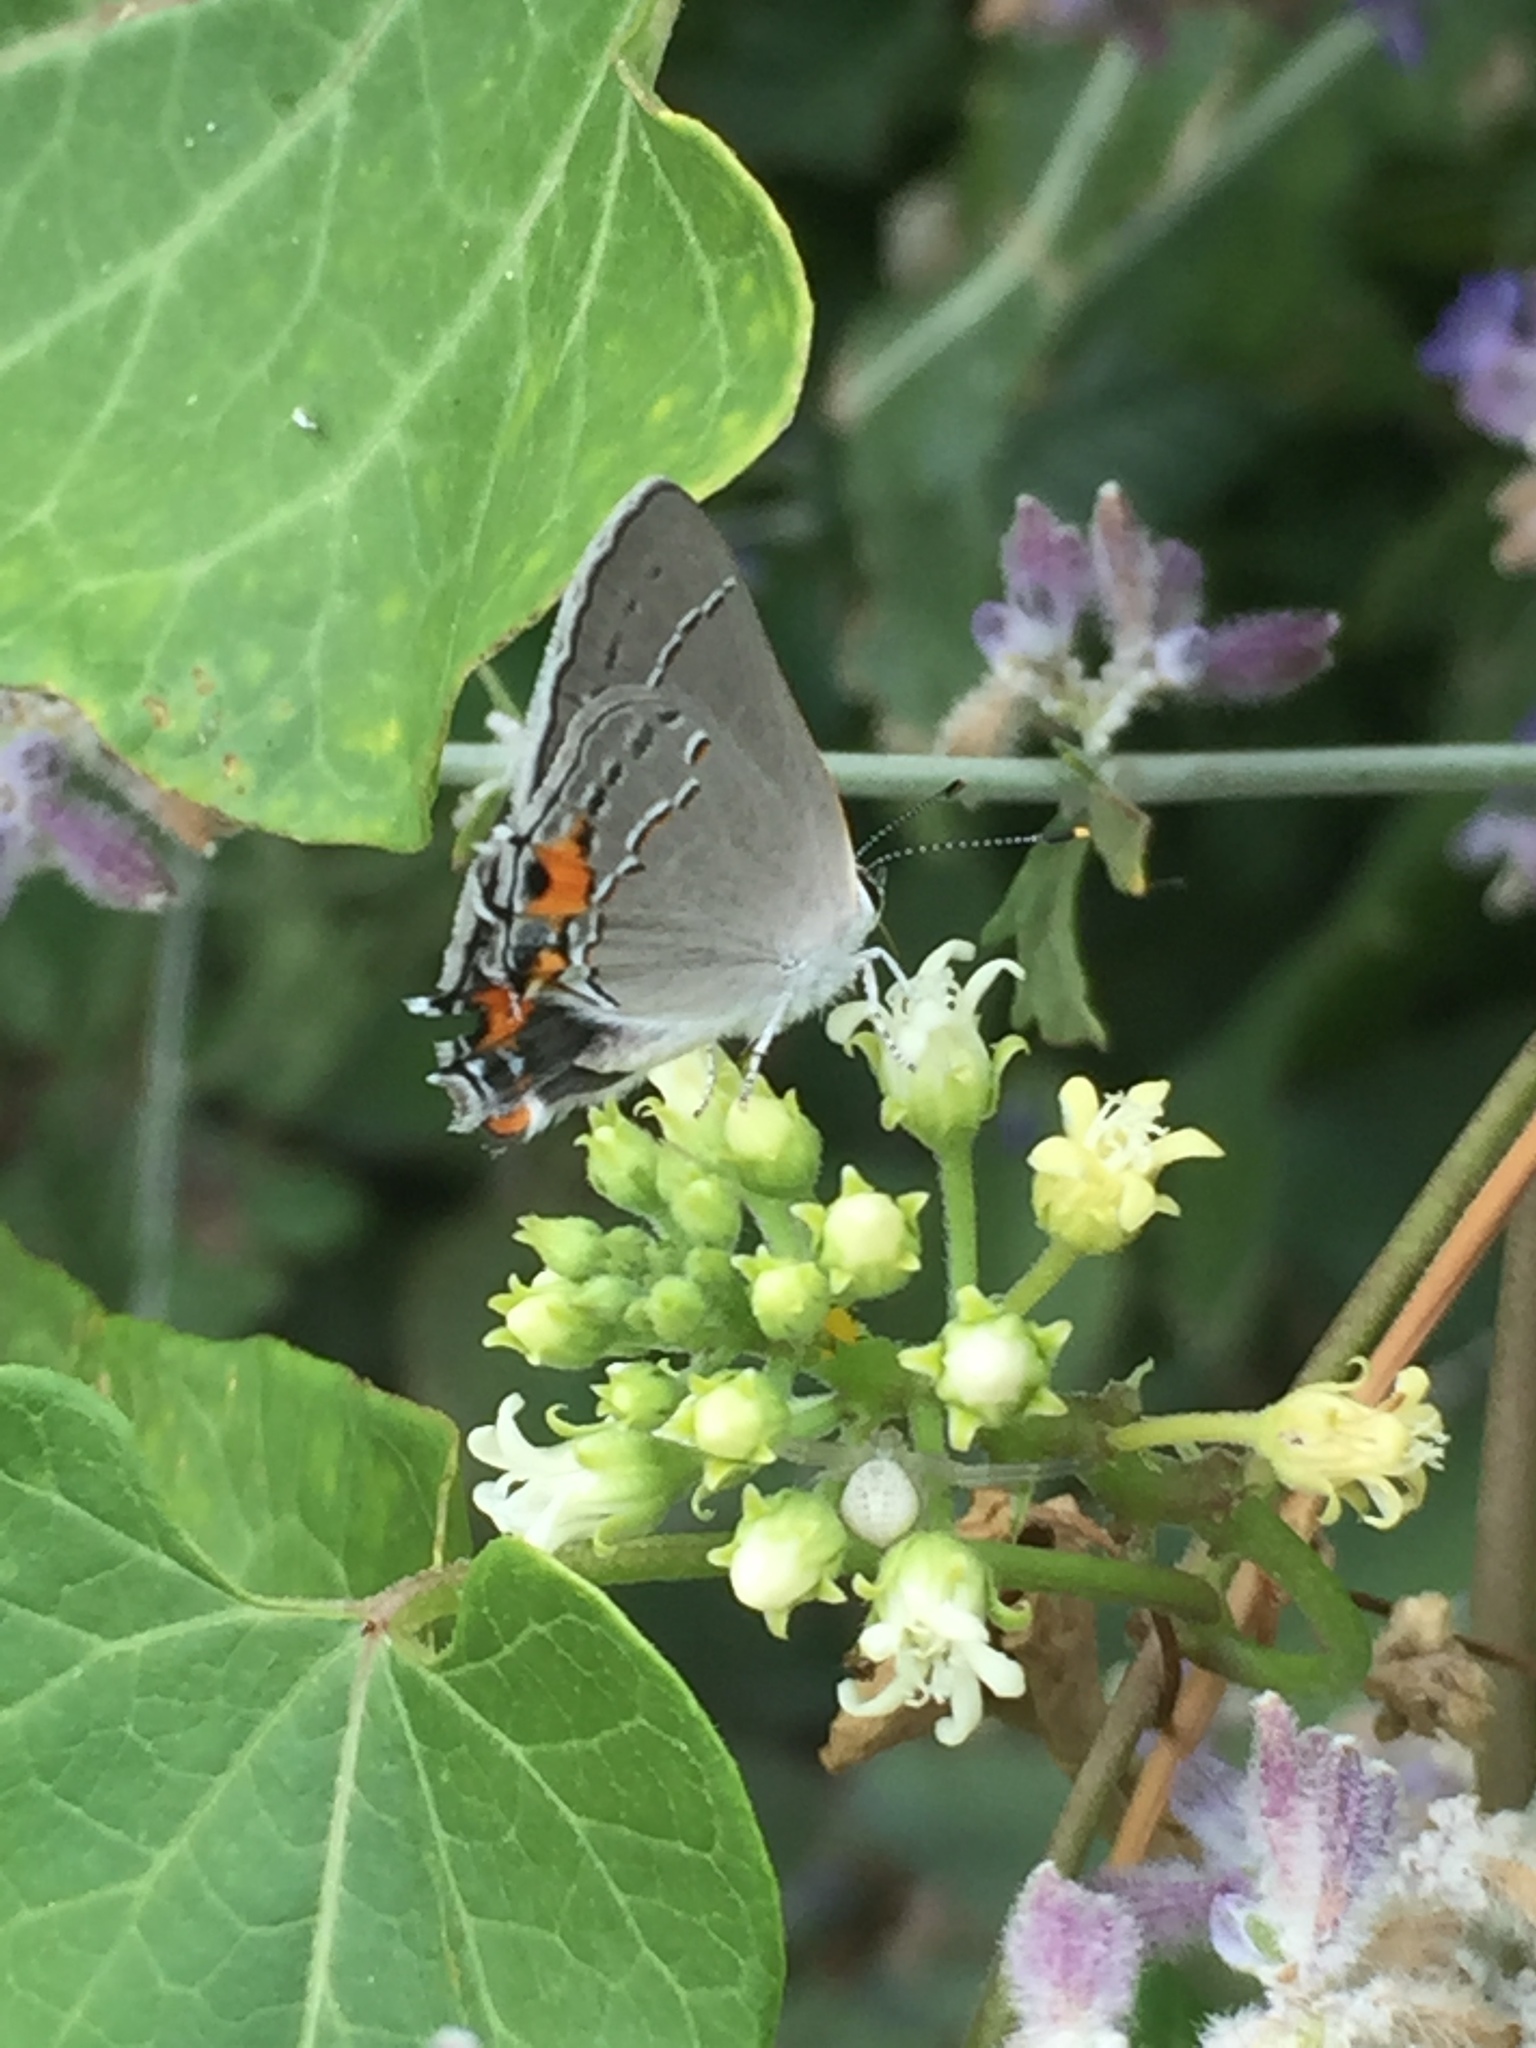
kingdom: Animalia
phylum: Arthropoda
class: Insecta
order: Lepidoptera
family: Lycaenidae
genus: Strymon
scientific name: Strymon melinus
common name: Gray hairstreak
